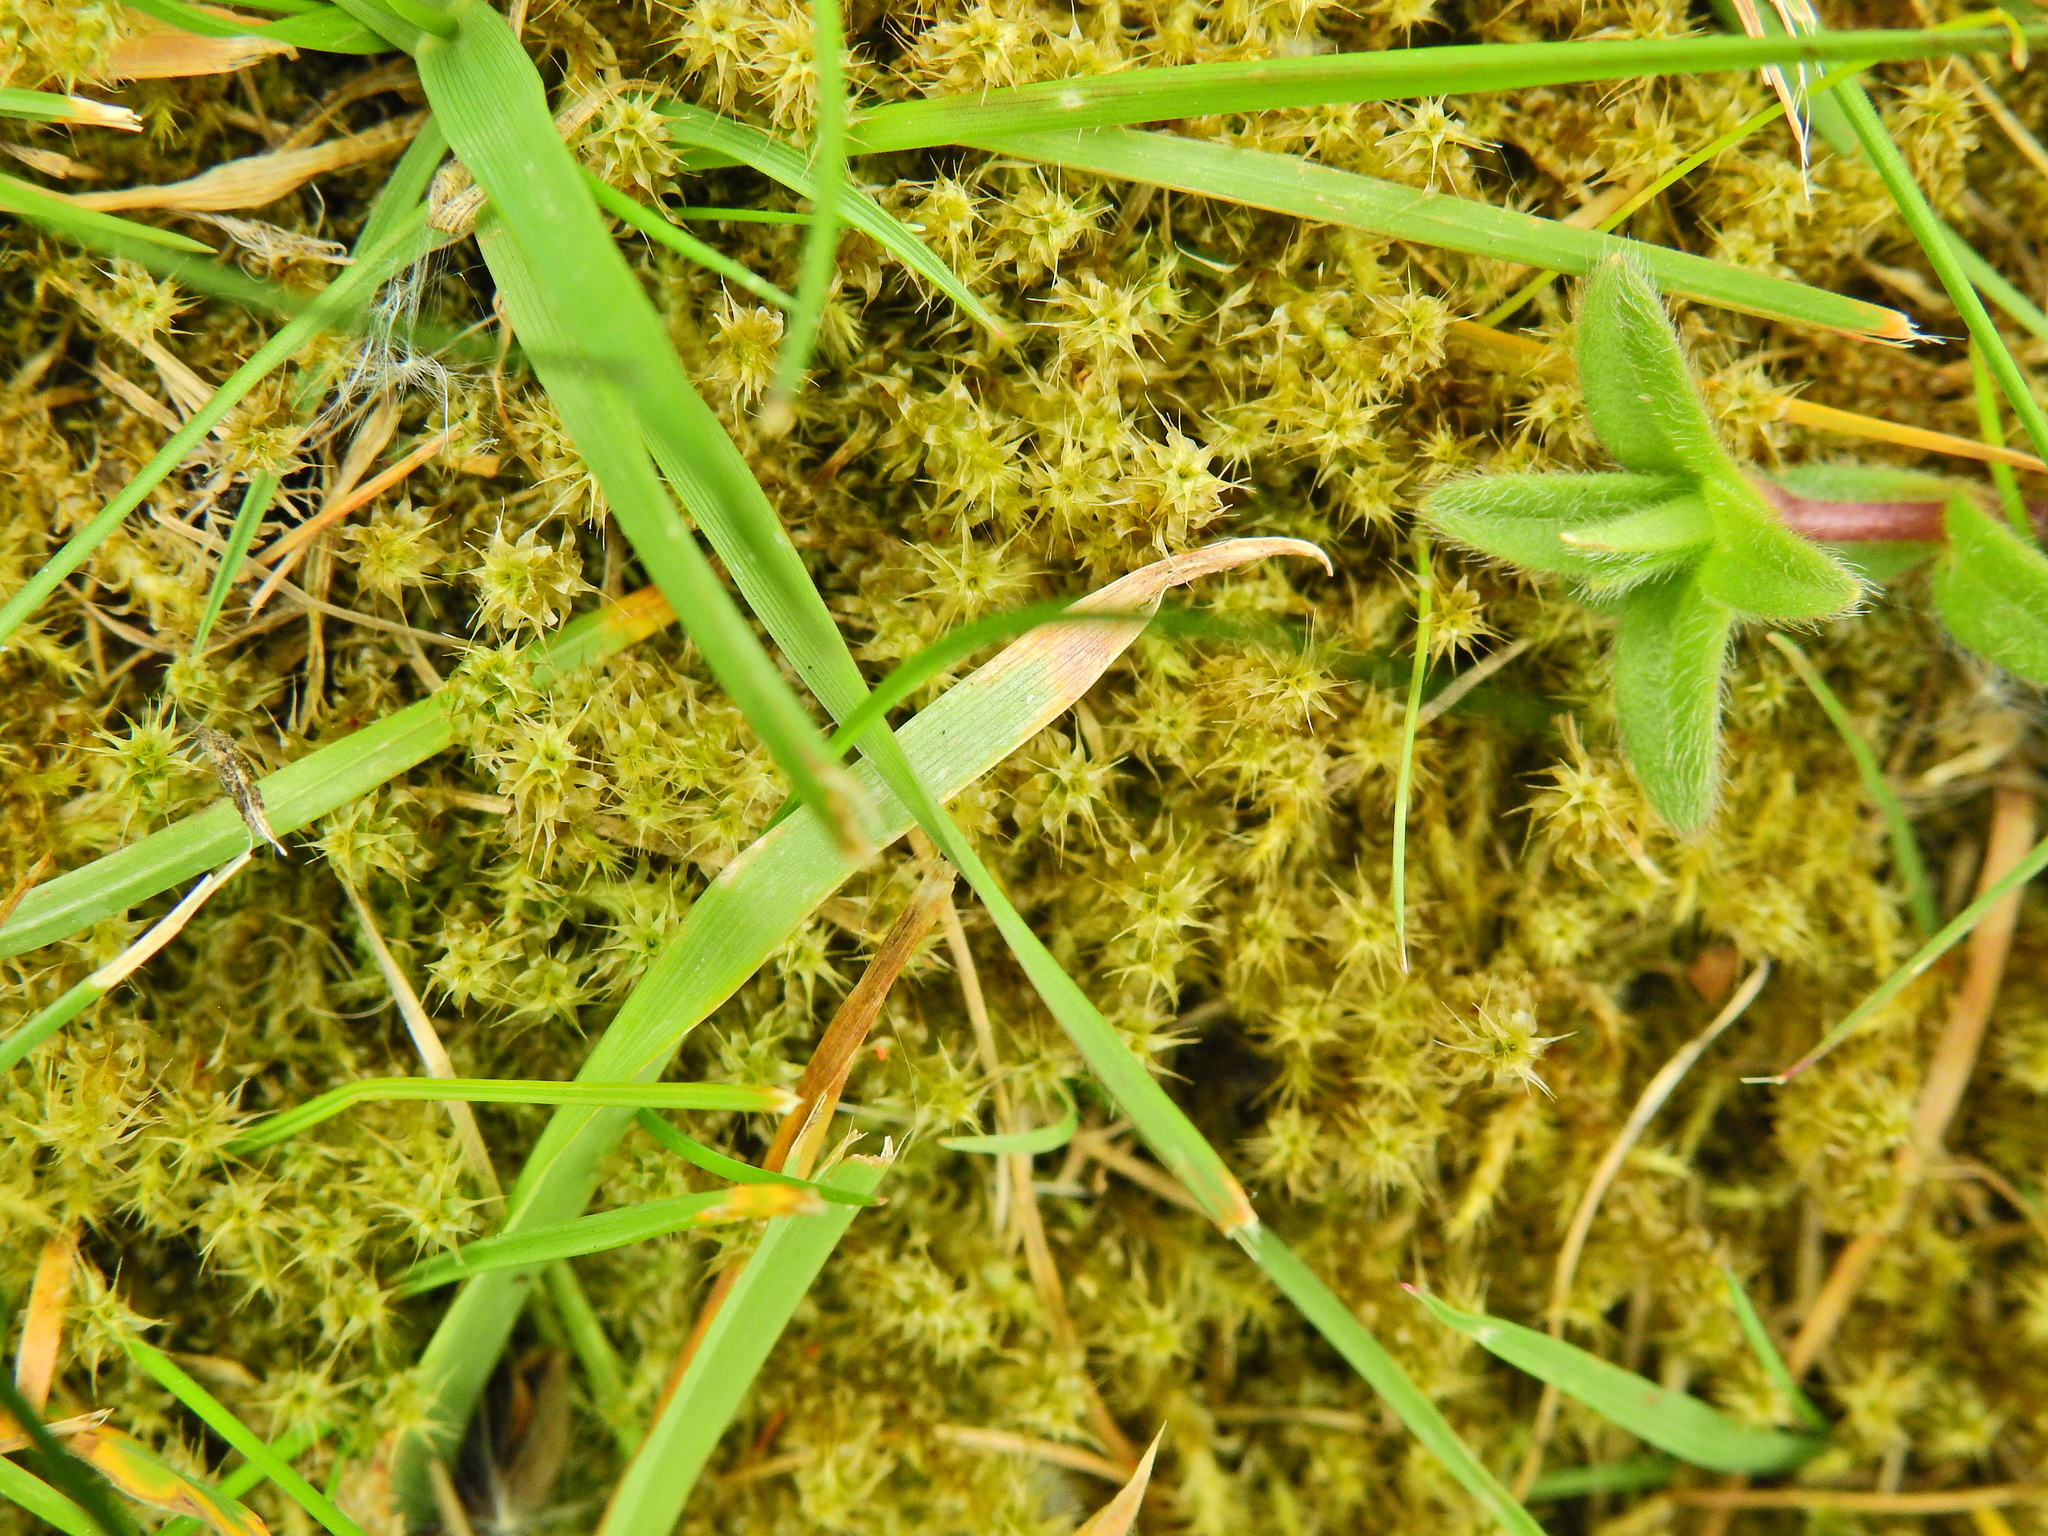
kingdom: Plantae
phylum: Bryophyta
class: Bryopsida
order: Hypnales
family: Hylocomiaceae
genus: Rhytidiadelphus
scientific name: Rhytidiadelphus squarrosus
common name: Springy turf-moss
